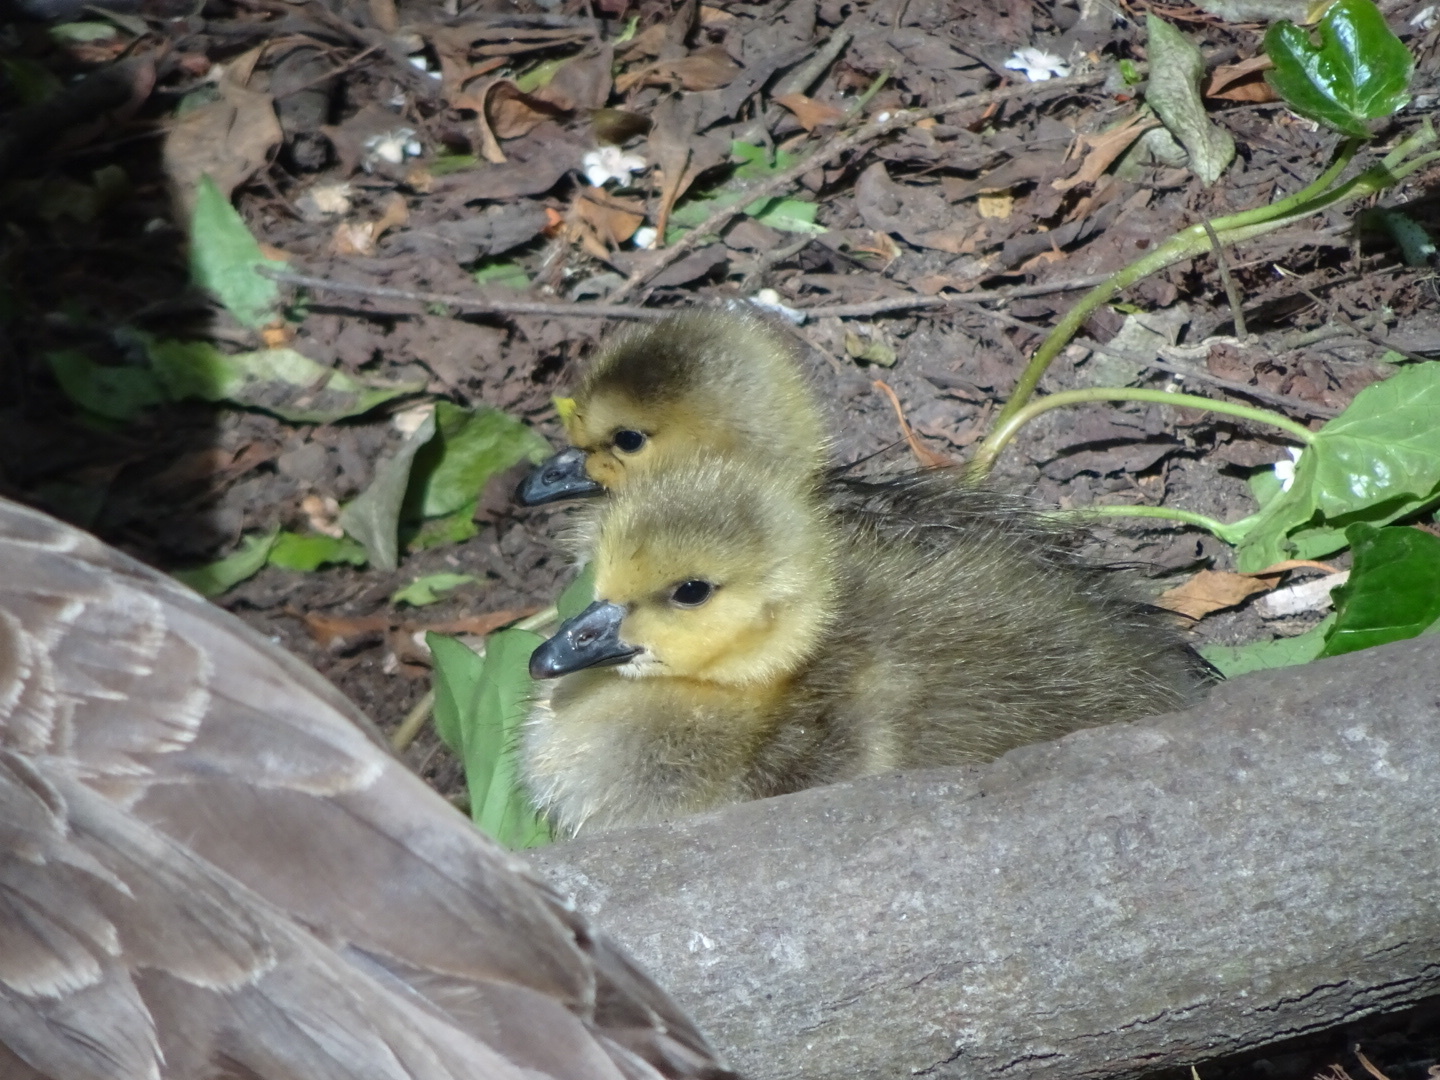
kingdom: Animalia
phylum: Chordata
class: Aves
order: Anseriformes
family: Anatidae
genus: Branta
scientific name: Branta canadensis
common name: Canada goose
